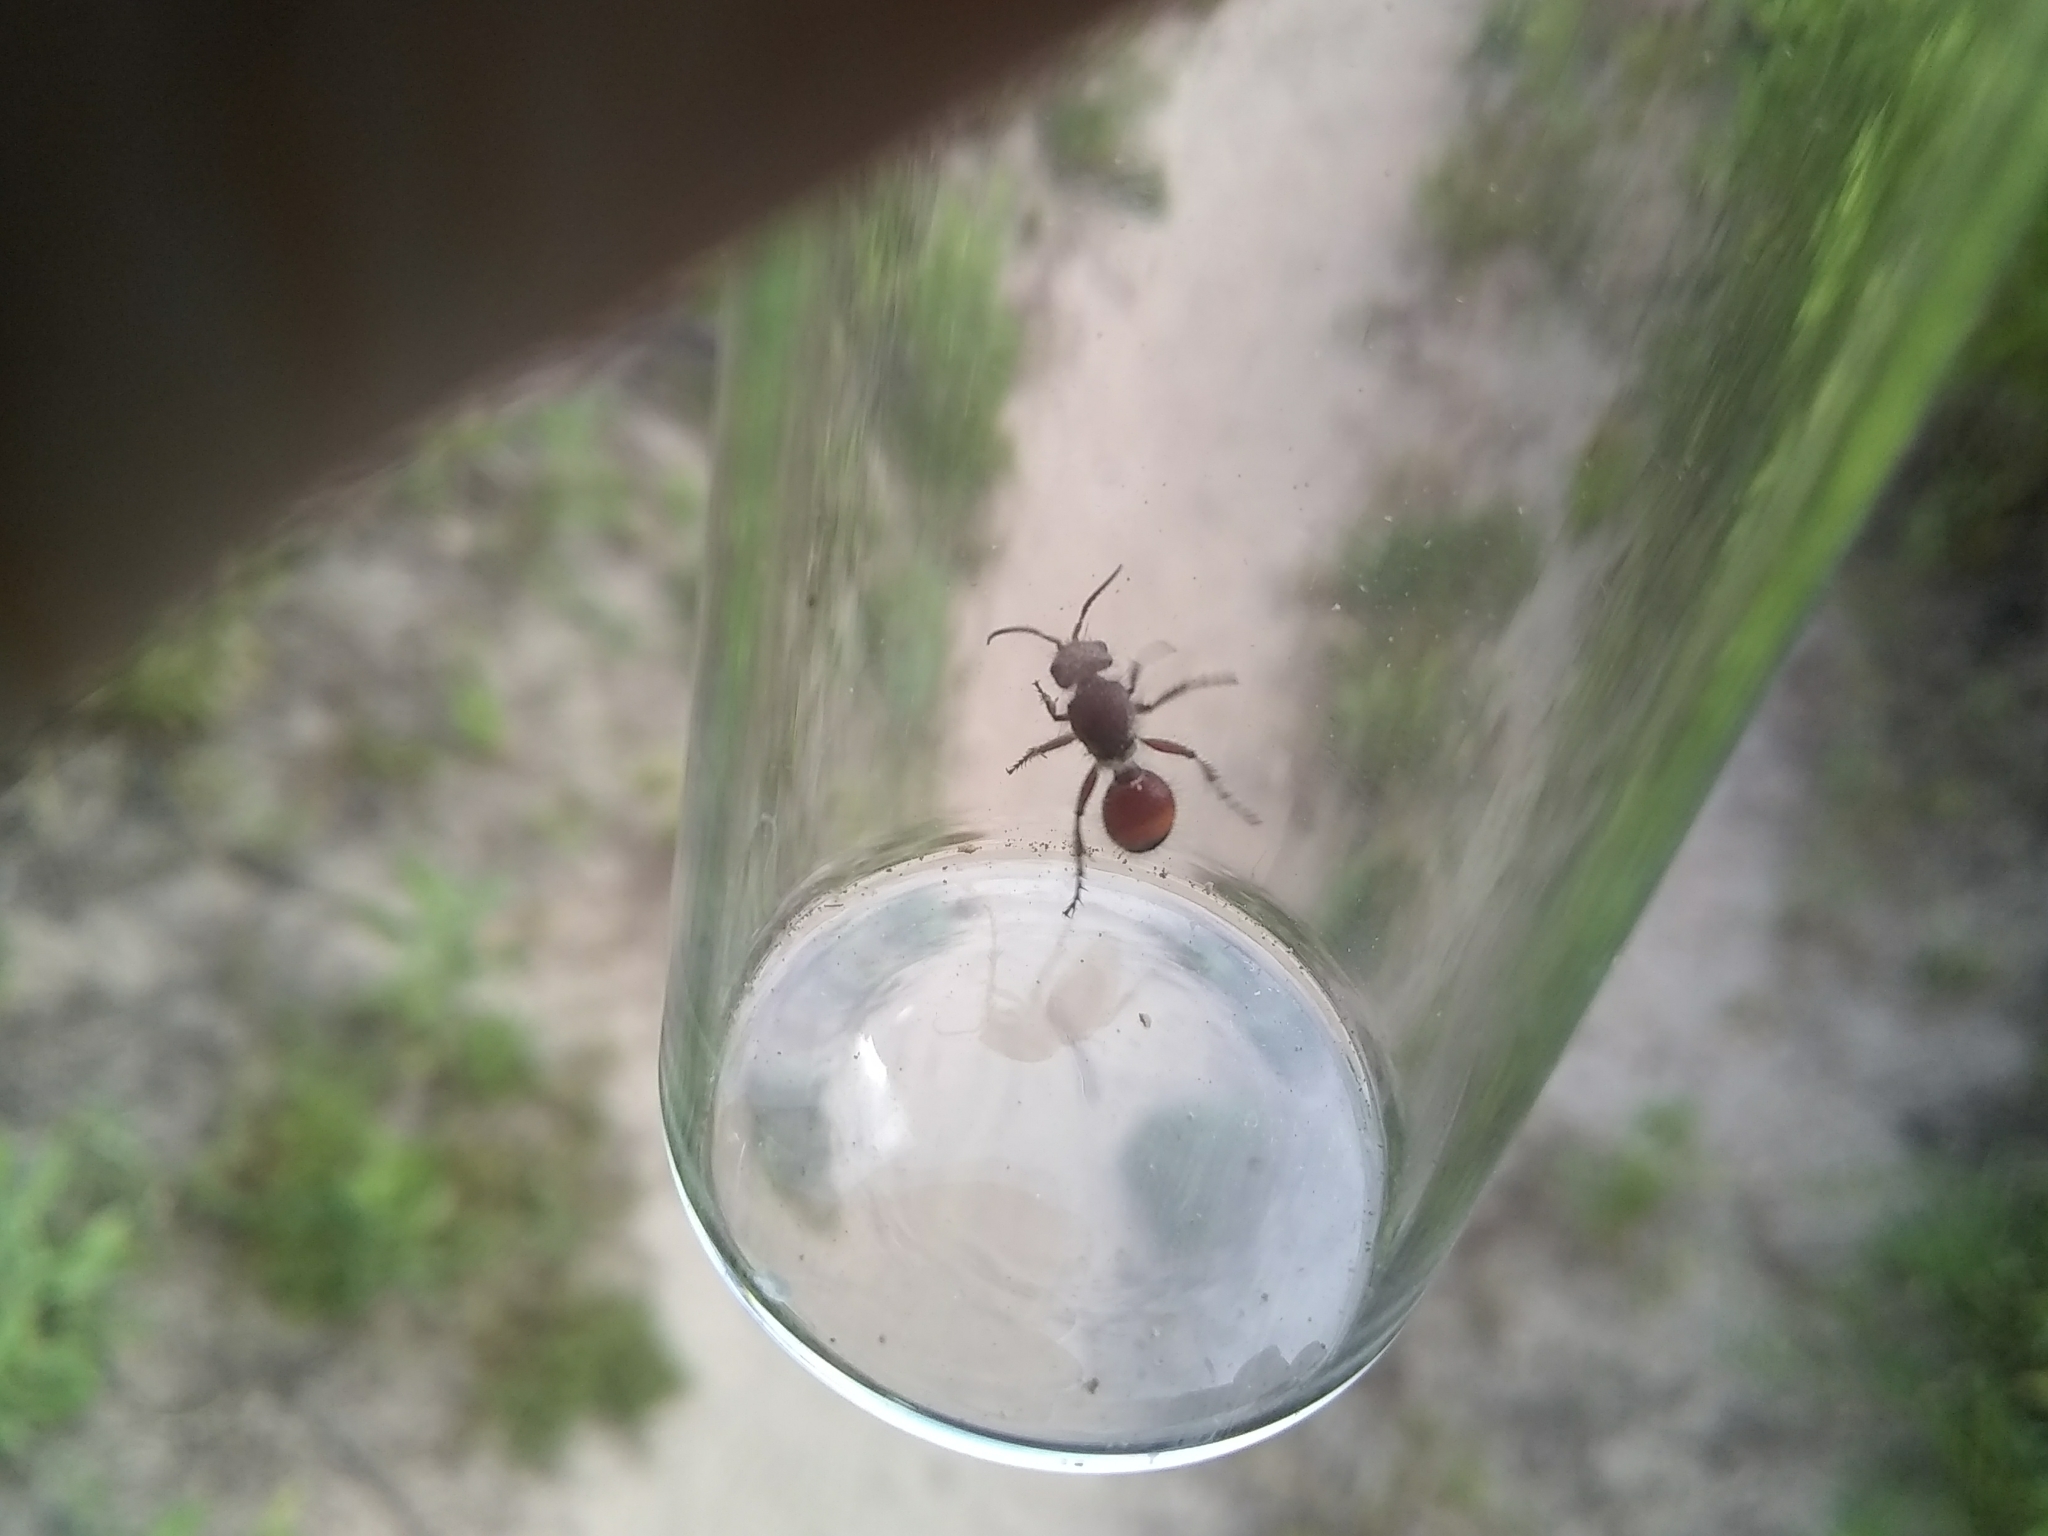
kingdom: Animalia
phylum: Arthropoda
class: Insecta
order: Hymenoptera
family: Mutillidae
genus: Dasymutilla
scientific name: Dasymutilla birkmani
